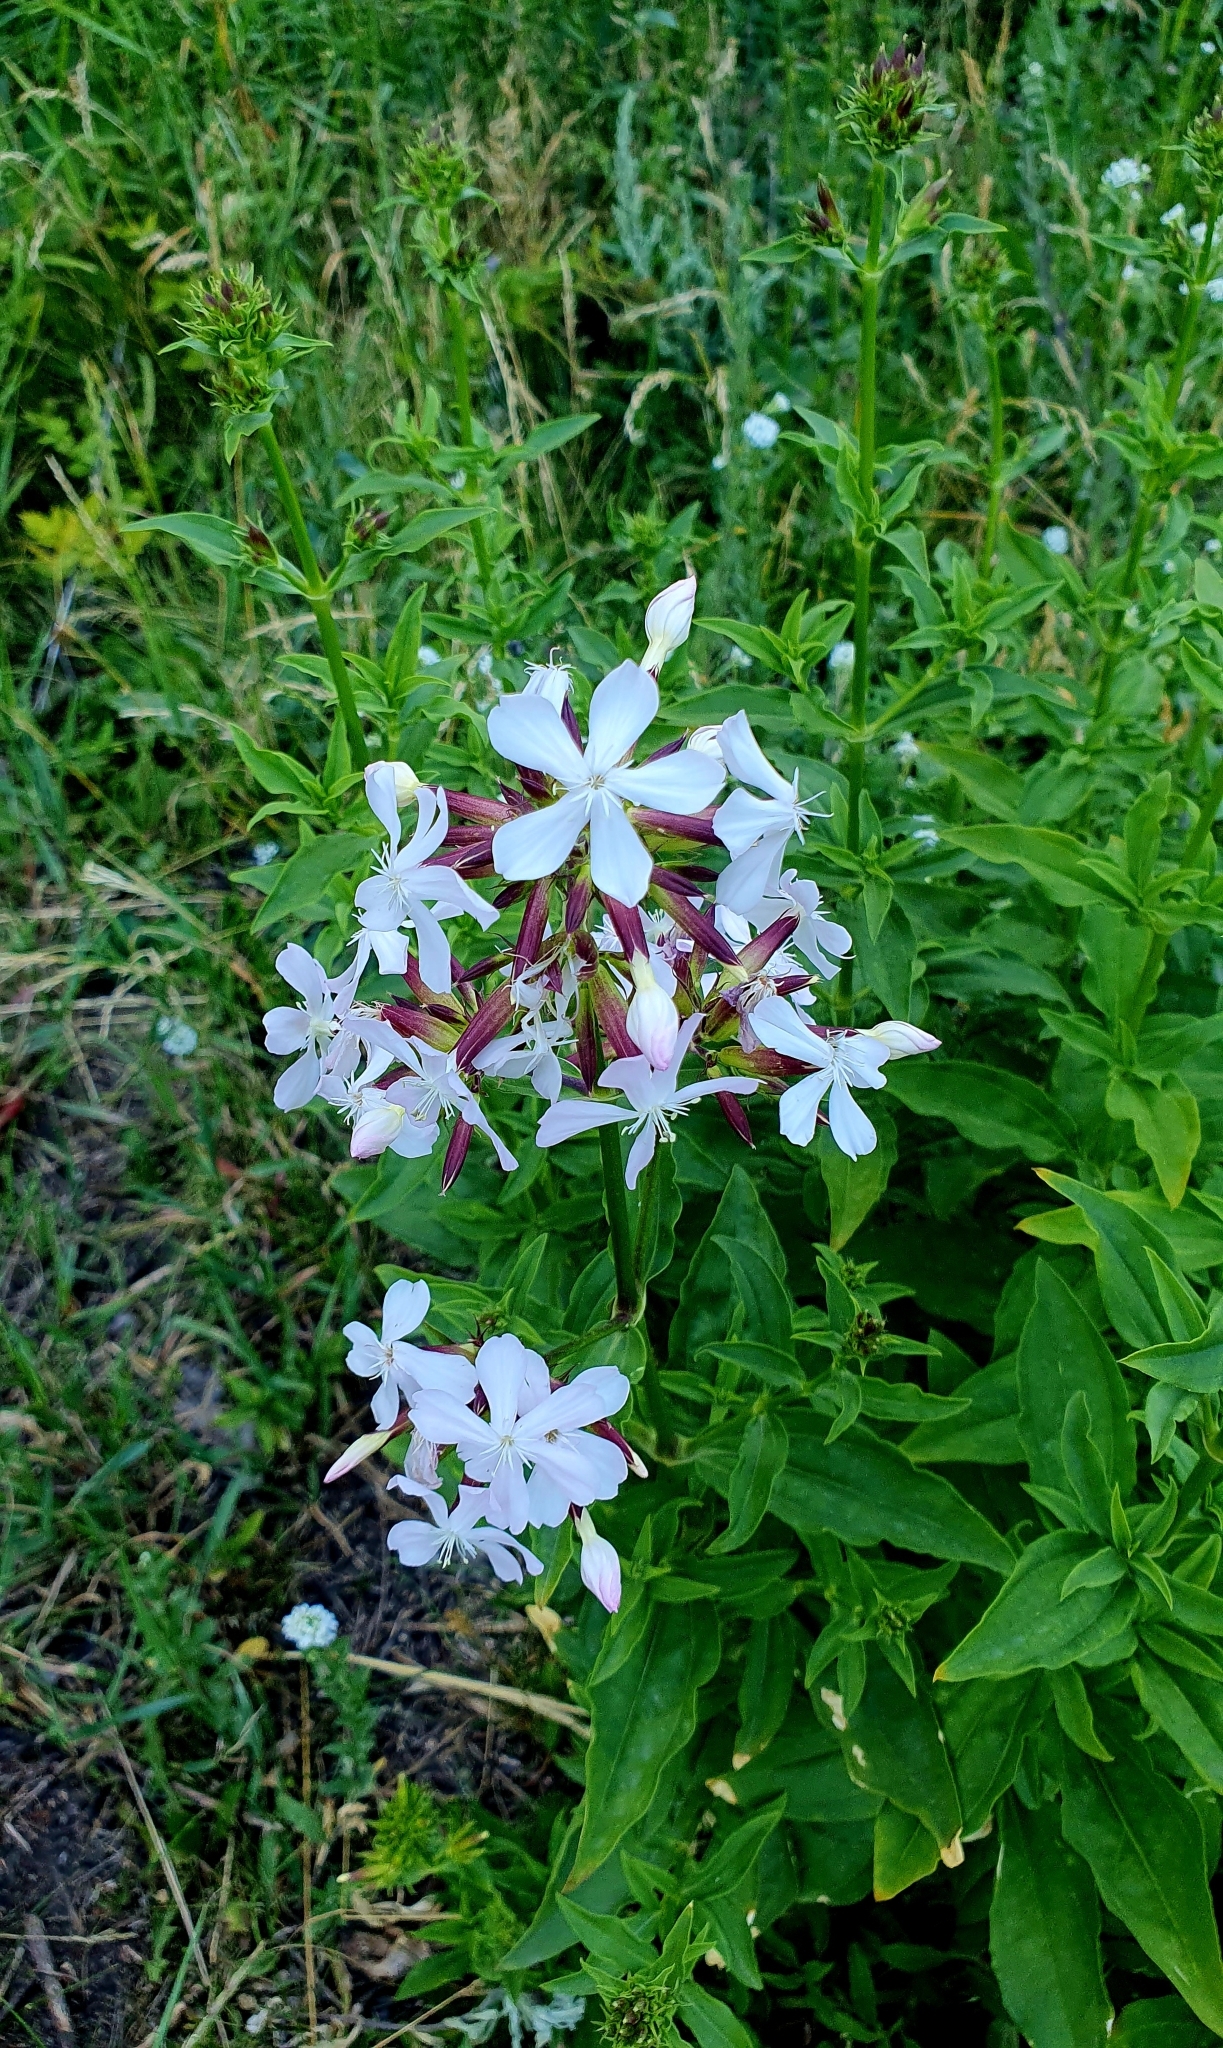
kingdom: Plantae
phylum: Tracheophyta
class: Magnoliopsida
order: Caryophyllales
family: Caryophyllaceae
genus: Saponaria
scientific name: Saponaria officinalis
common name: Soapwort
